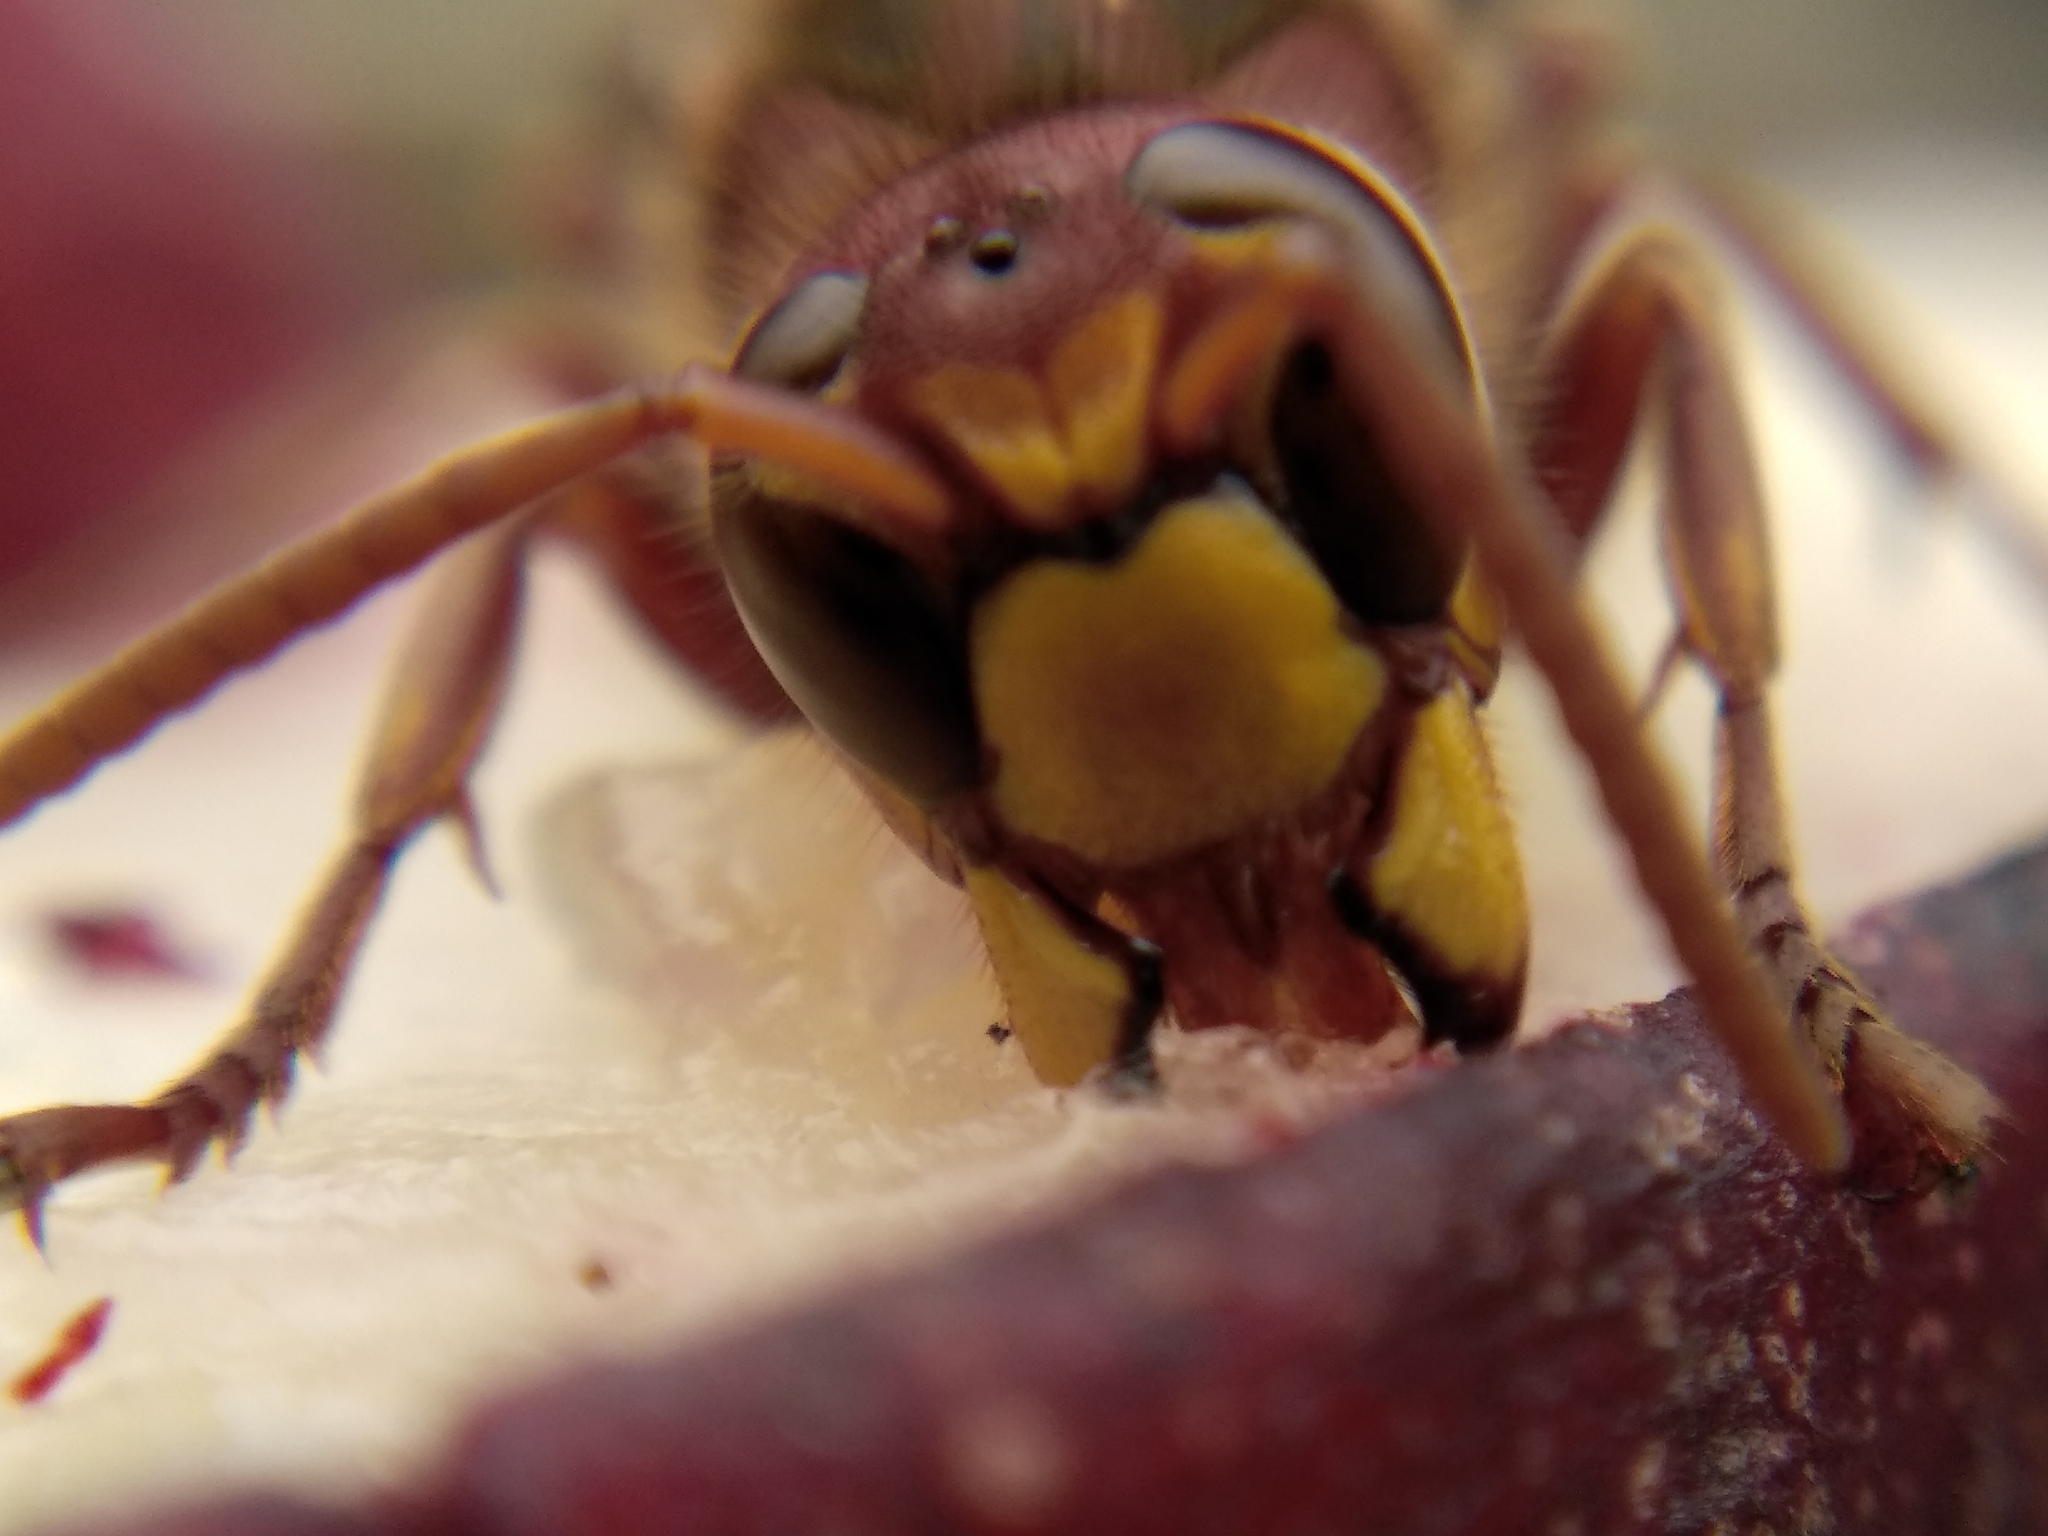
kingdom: Animalia
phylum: Arthropoda
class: Insecta
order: Hymenoptera
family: Vespidae
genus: Vespa
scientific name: Vespa crabro
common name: Hornet
